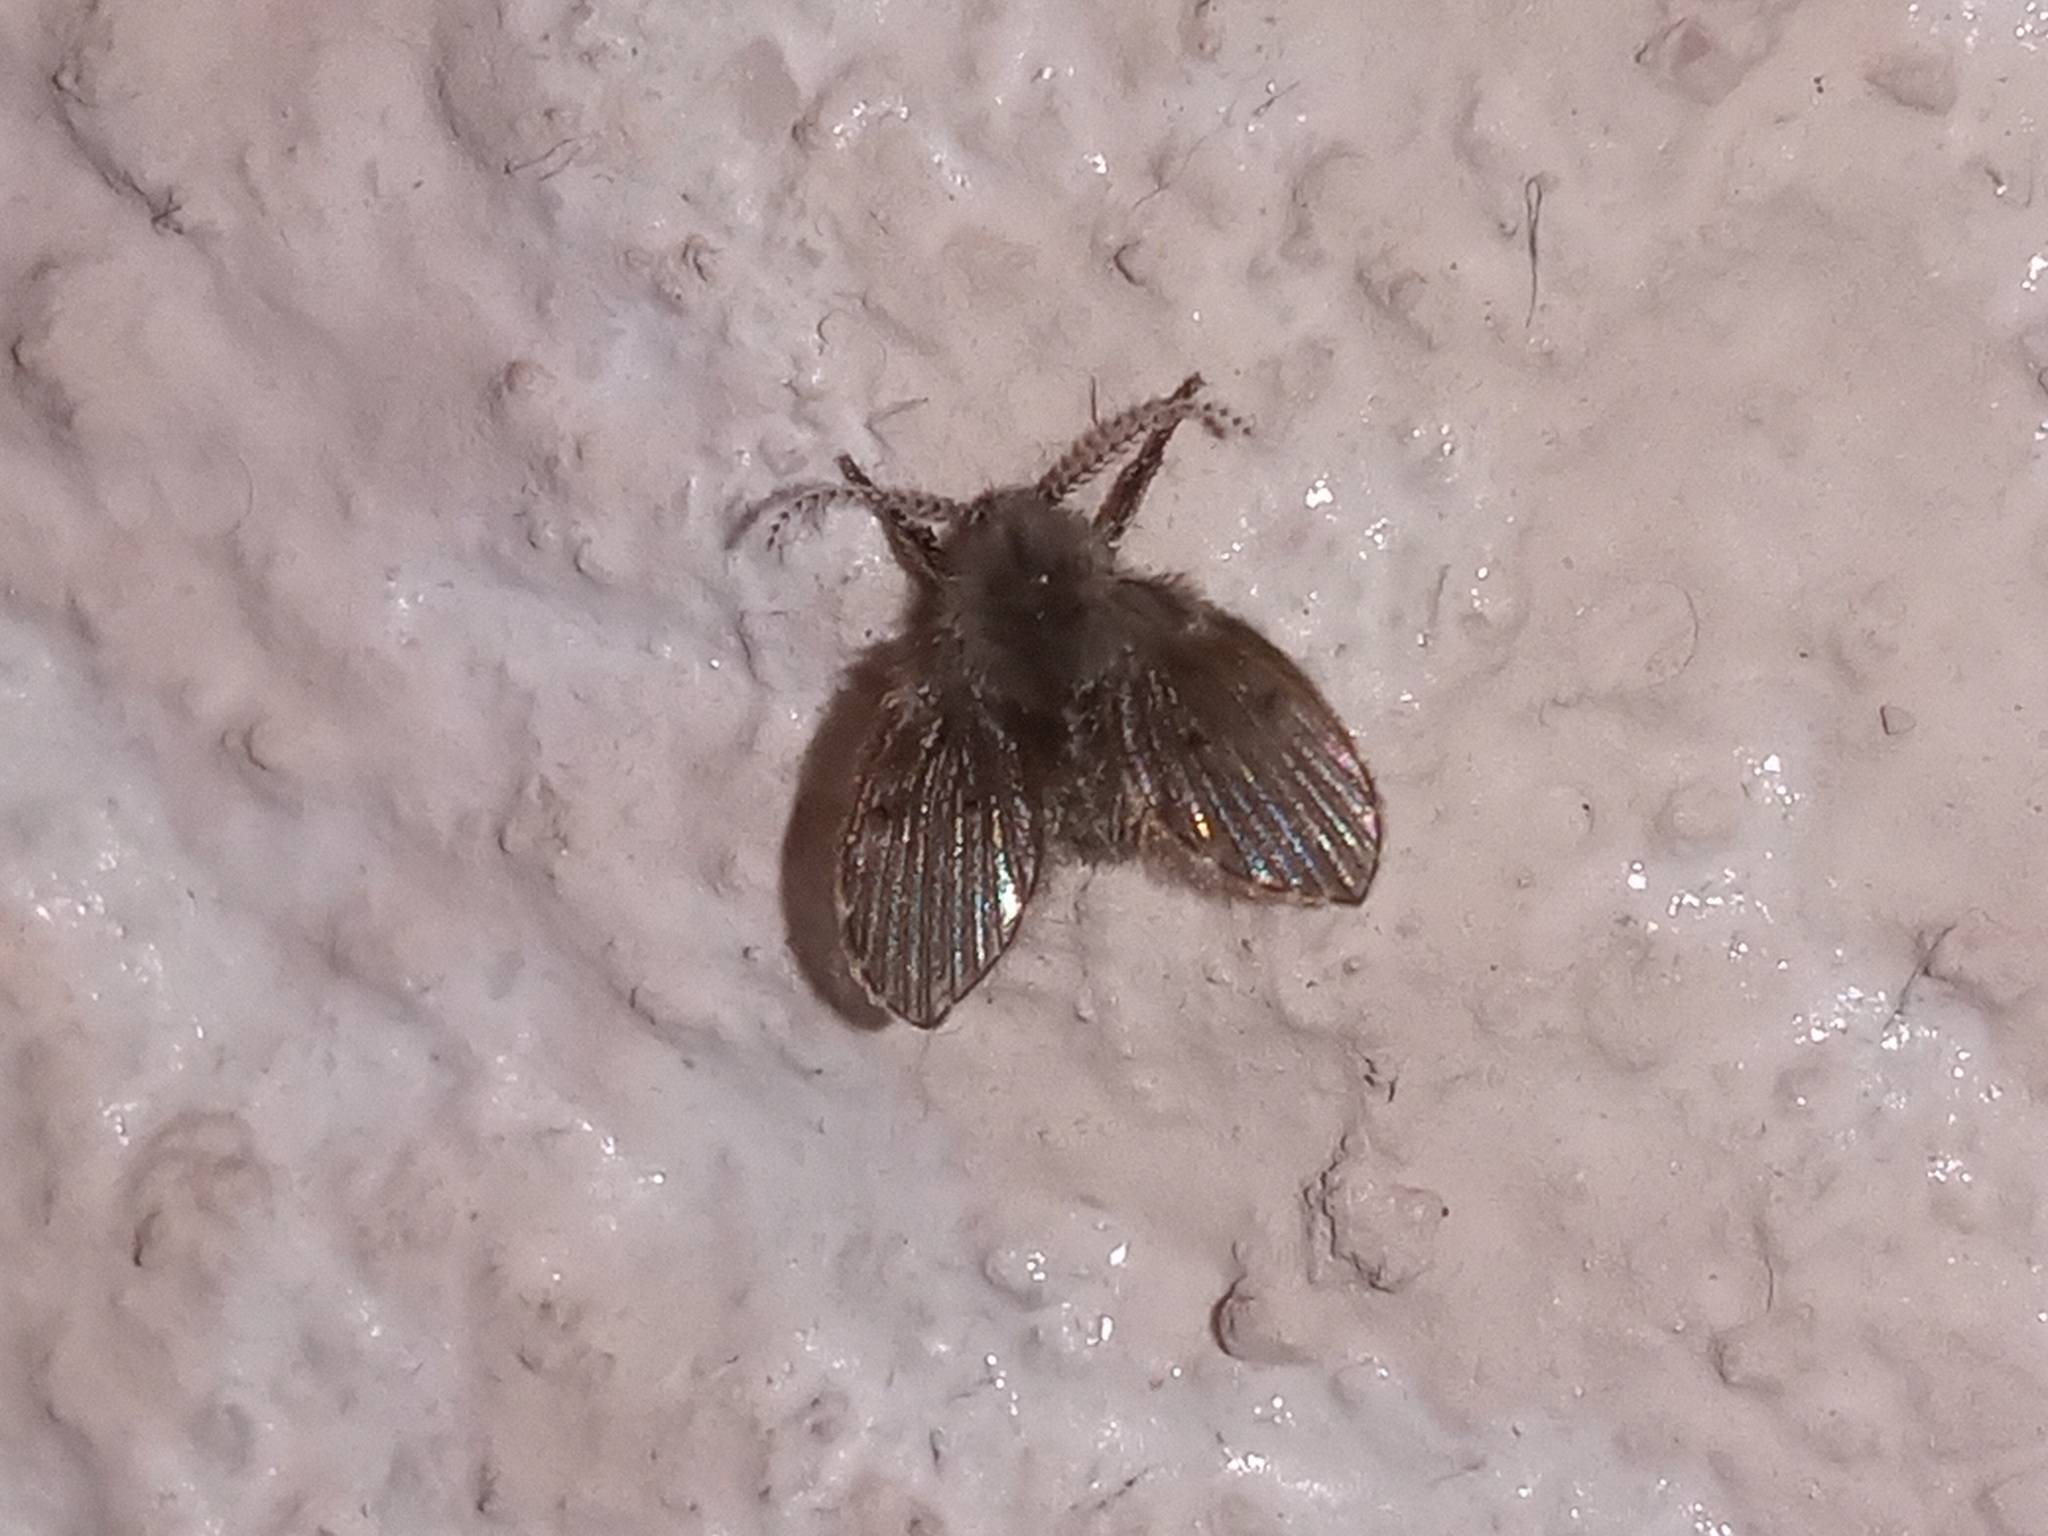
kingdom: Animalia
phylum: Arthropoda
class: Insecta
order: Diptera
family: Psychodidae
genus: Clogmia
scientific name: Clogmia albipunctatus
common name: White-spotted moth fly
